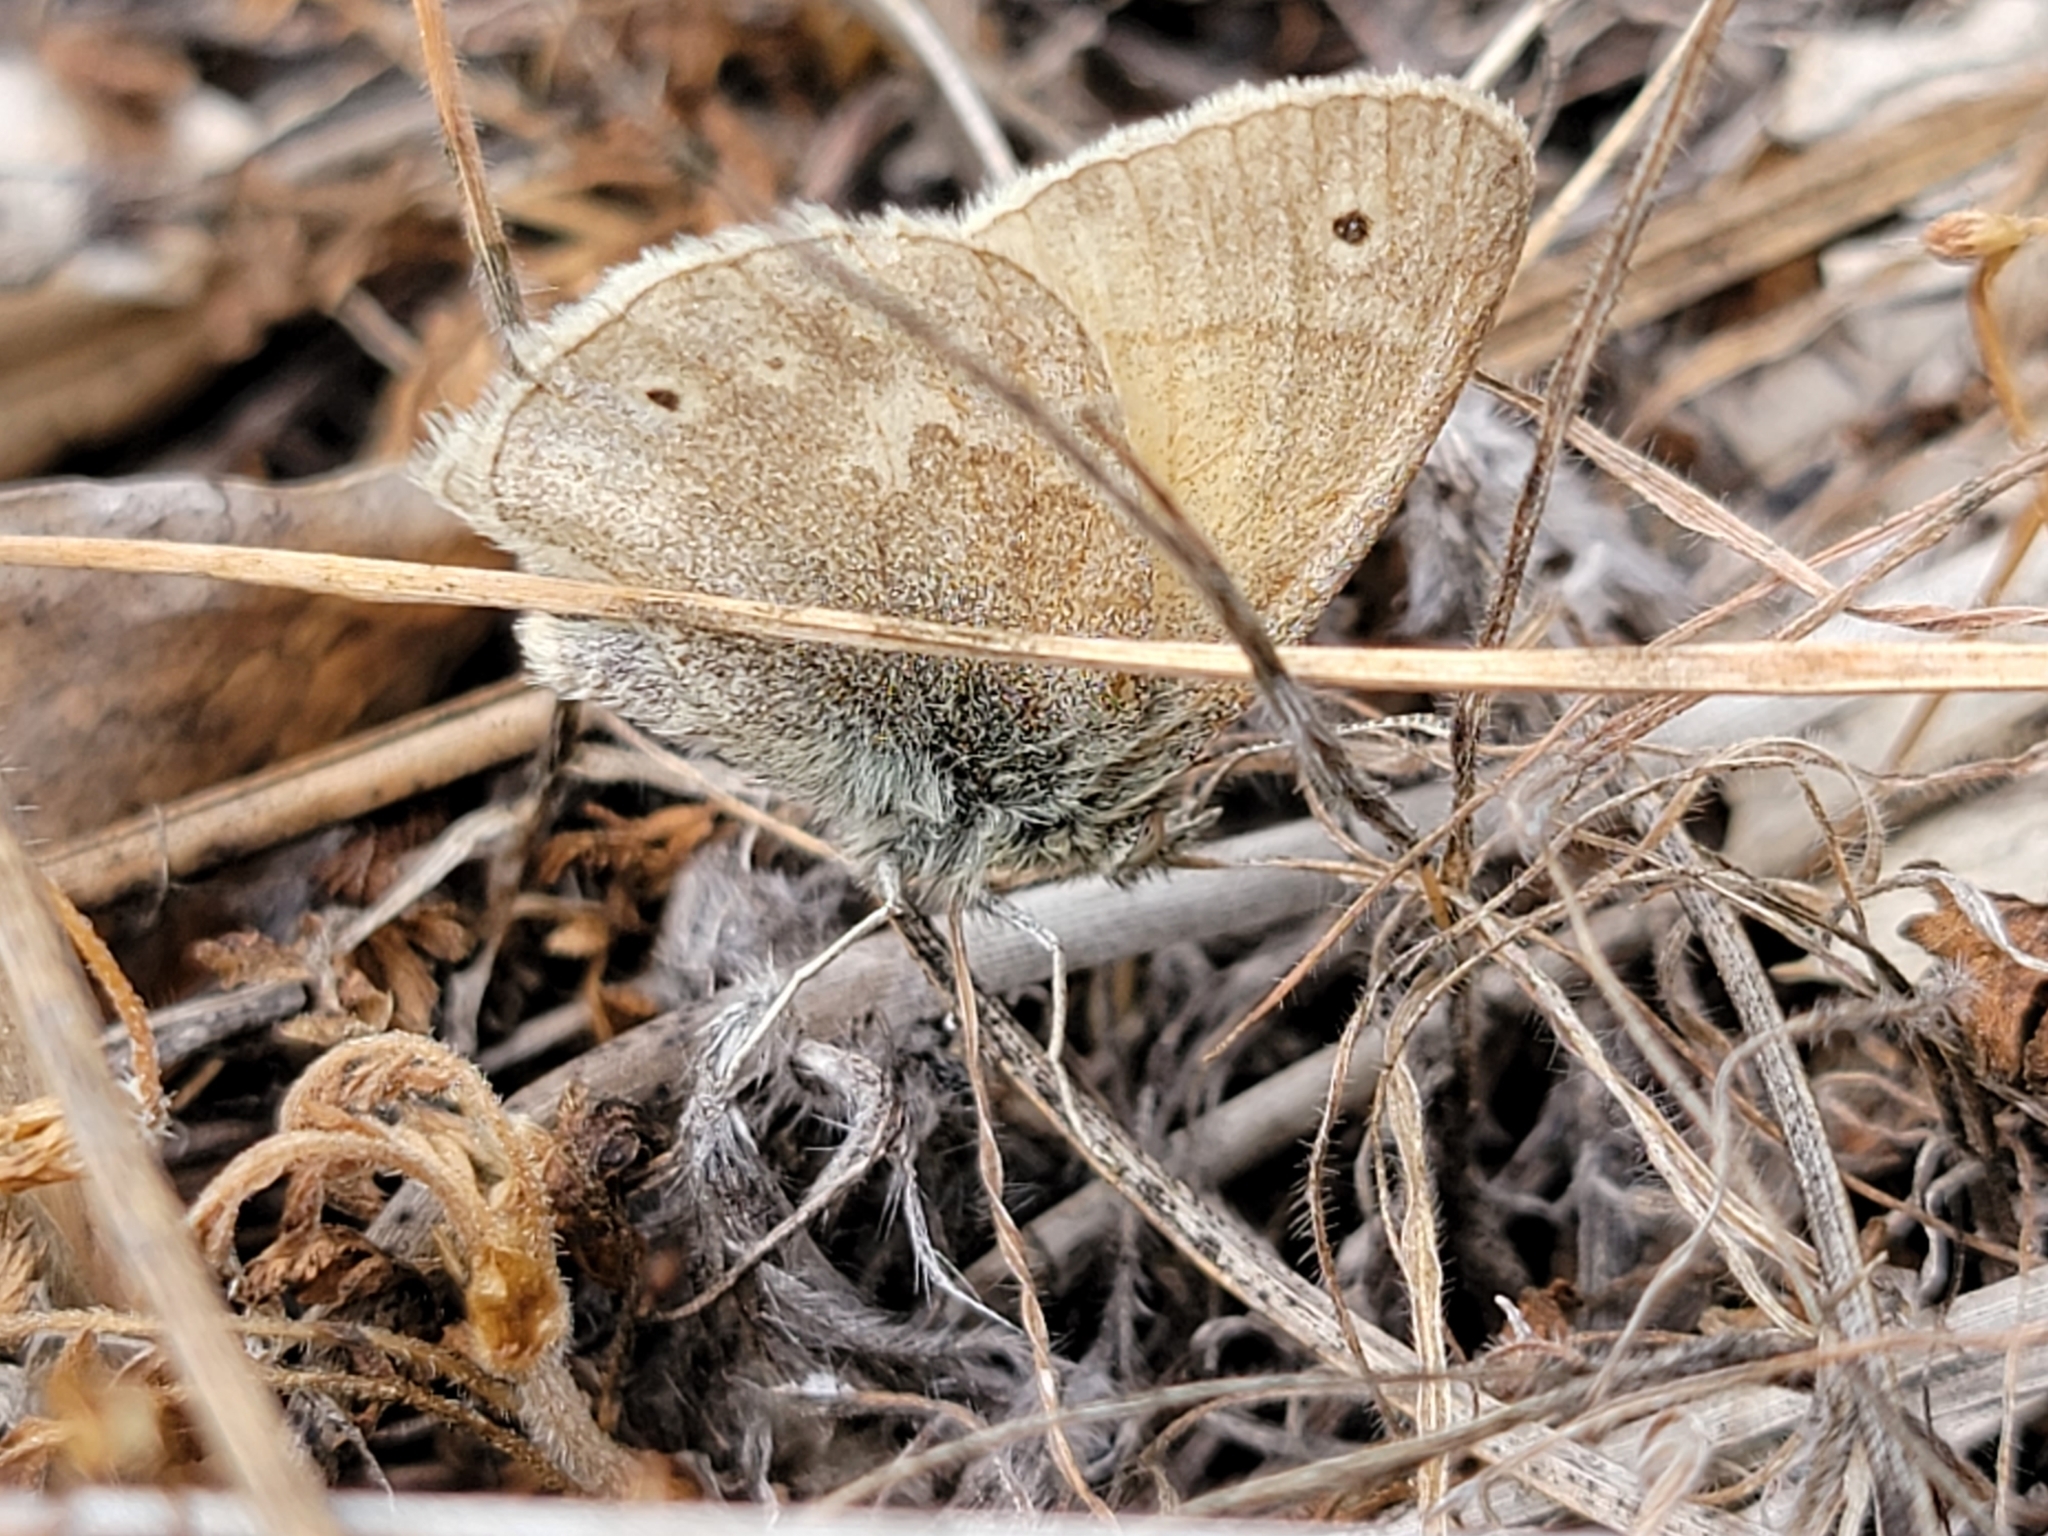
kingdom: Animalia
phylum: Arthropoda
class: Insecta
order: Lepidoptera
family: Nymphalidae
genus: Coenonympha
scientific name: Coenonympha california
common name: Common ringlet
